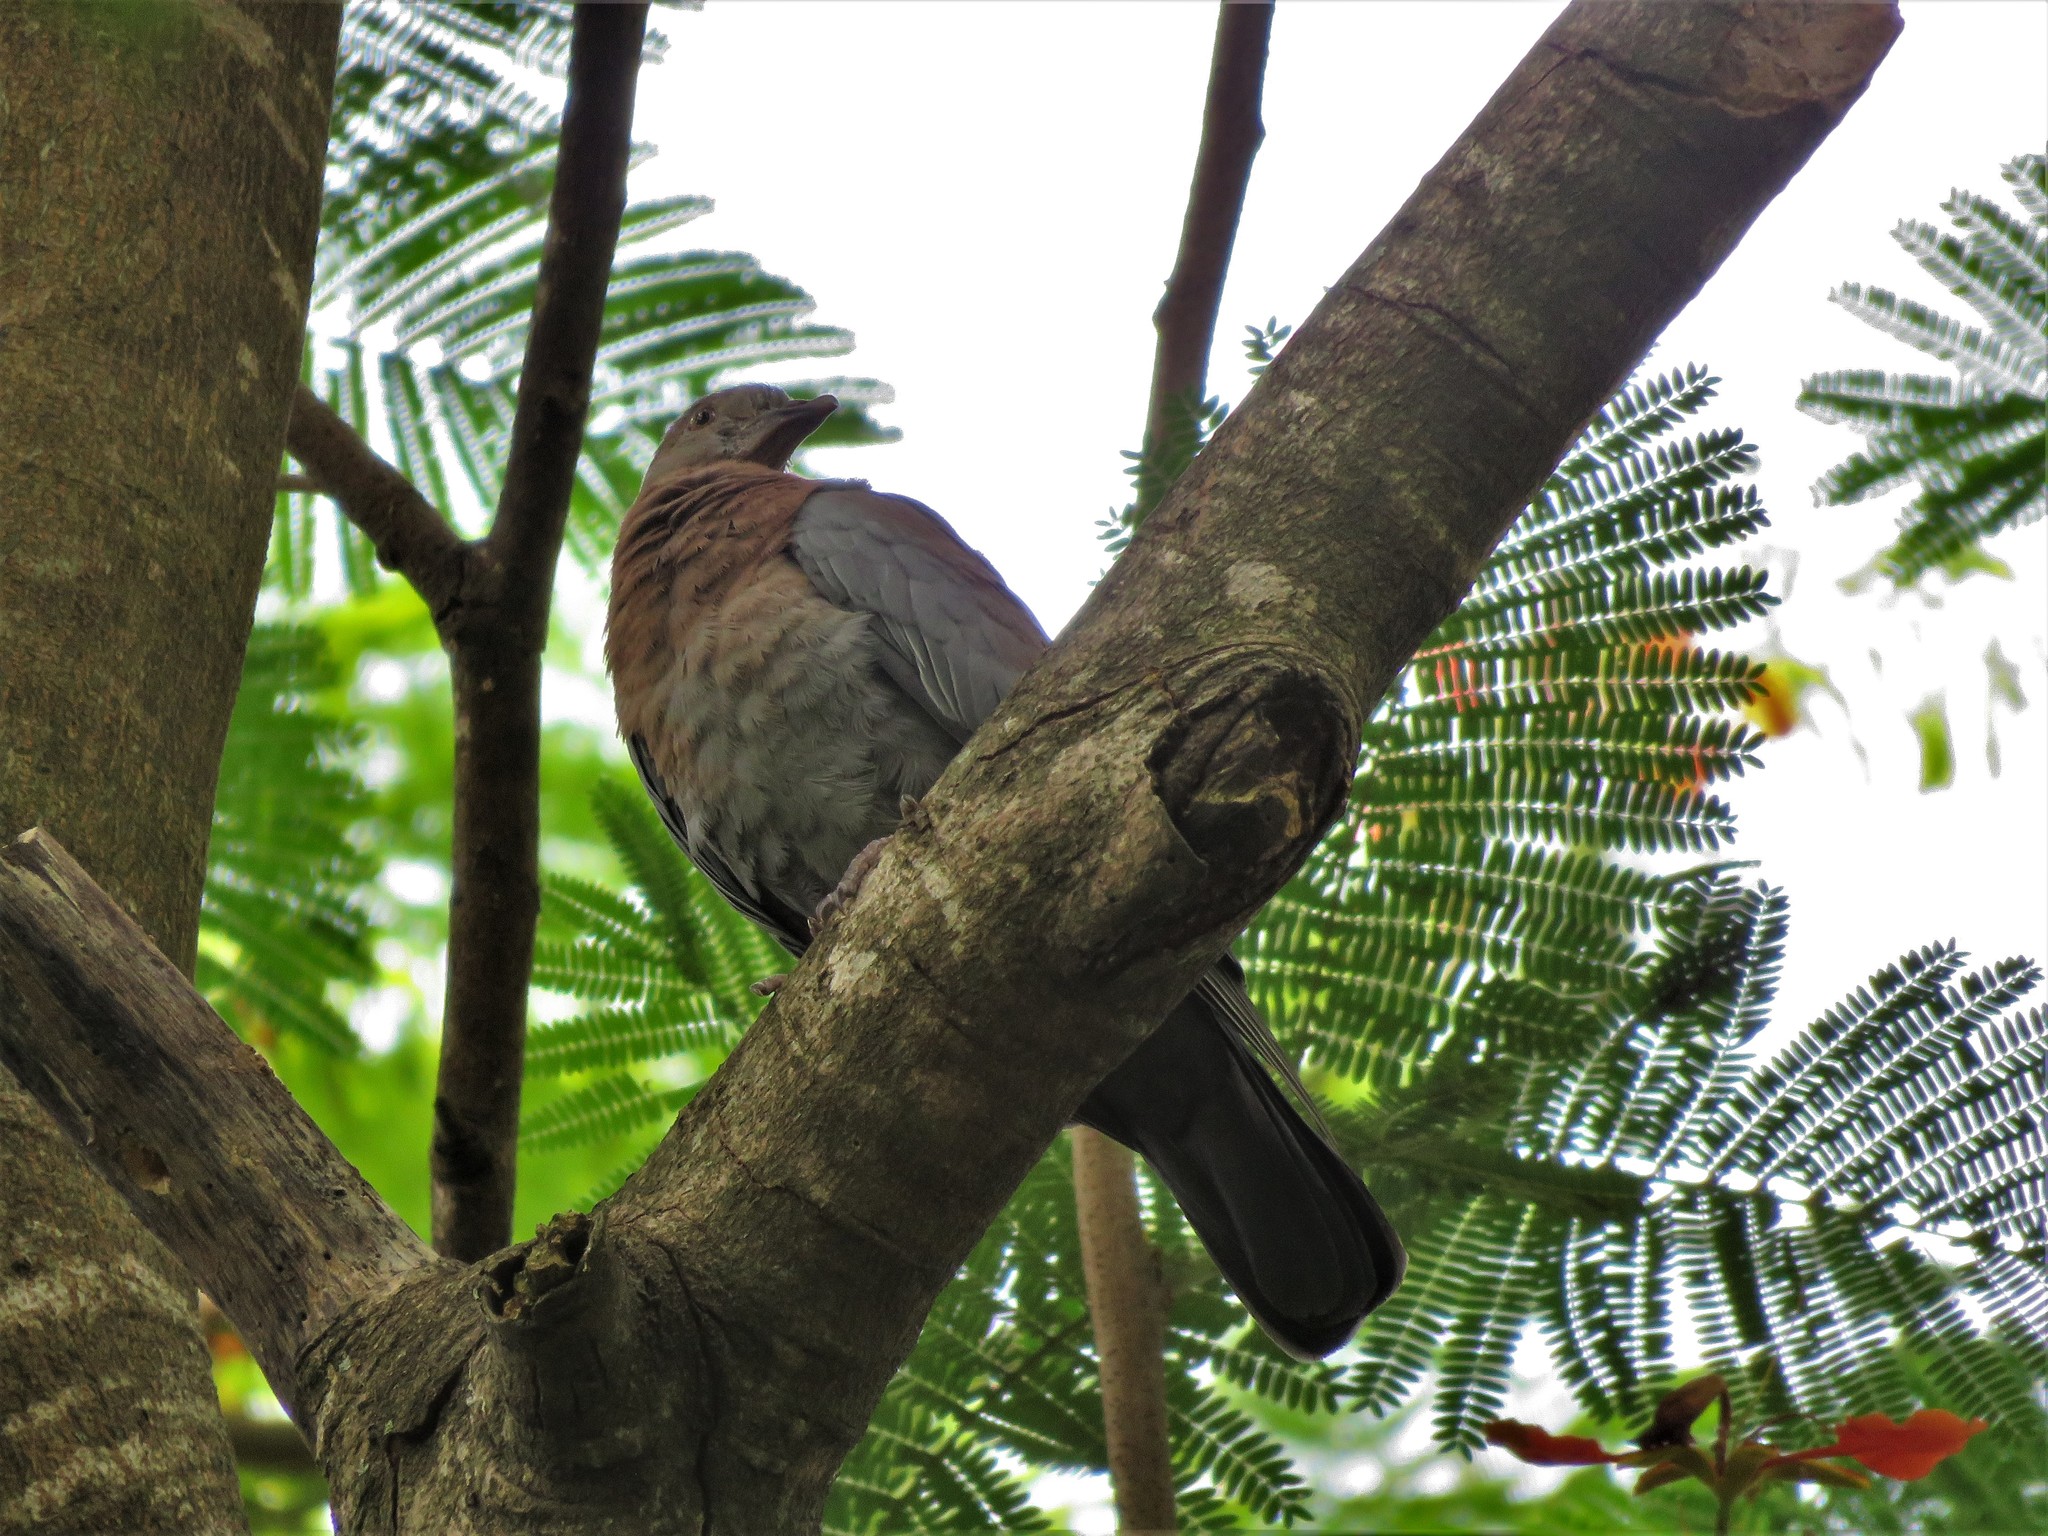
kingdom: Animalia
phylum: Chordata
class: Aves
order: Columbiformes
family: Columbidae
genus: Patagioenas
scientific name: Patagioenas flavirostris
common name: Red-billed pigeon
